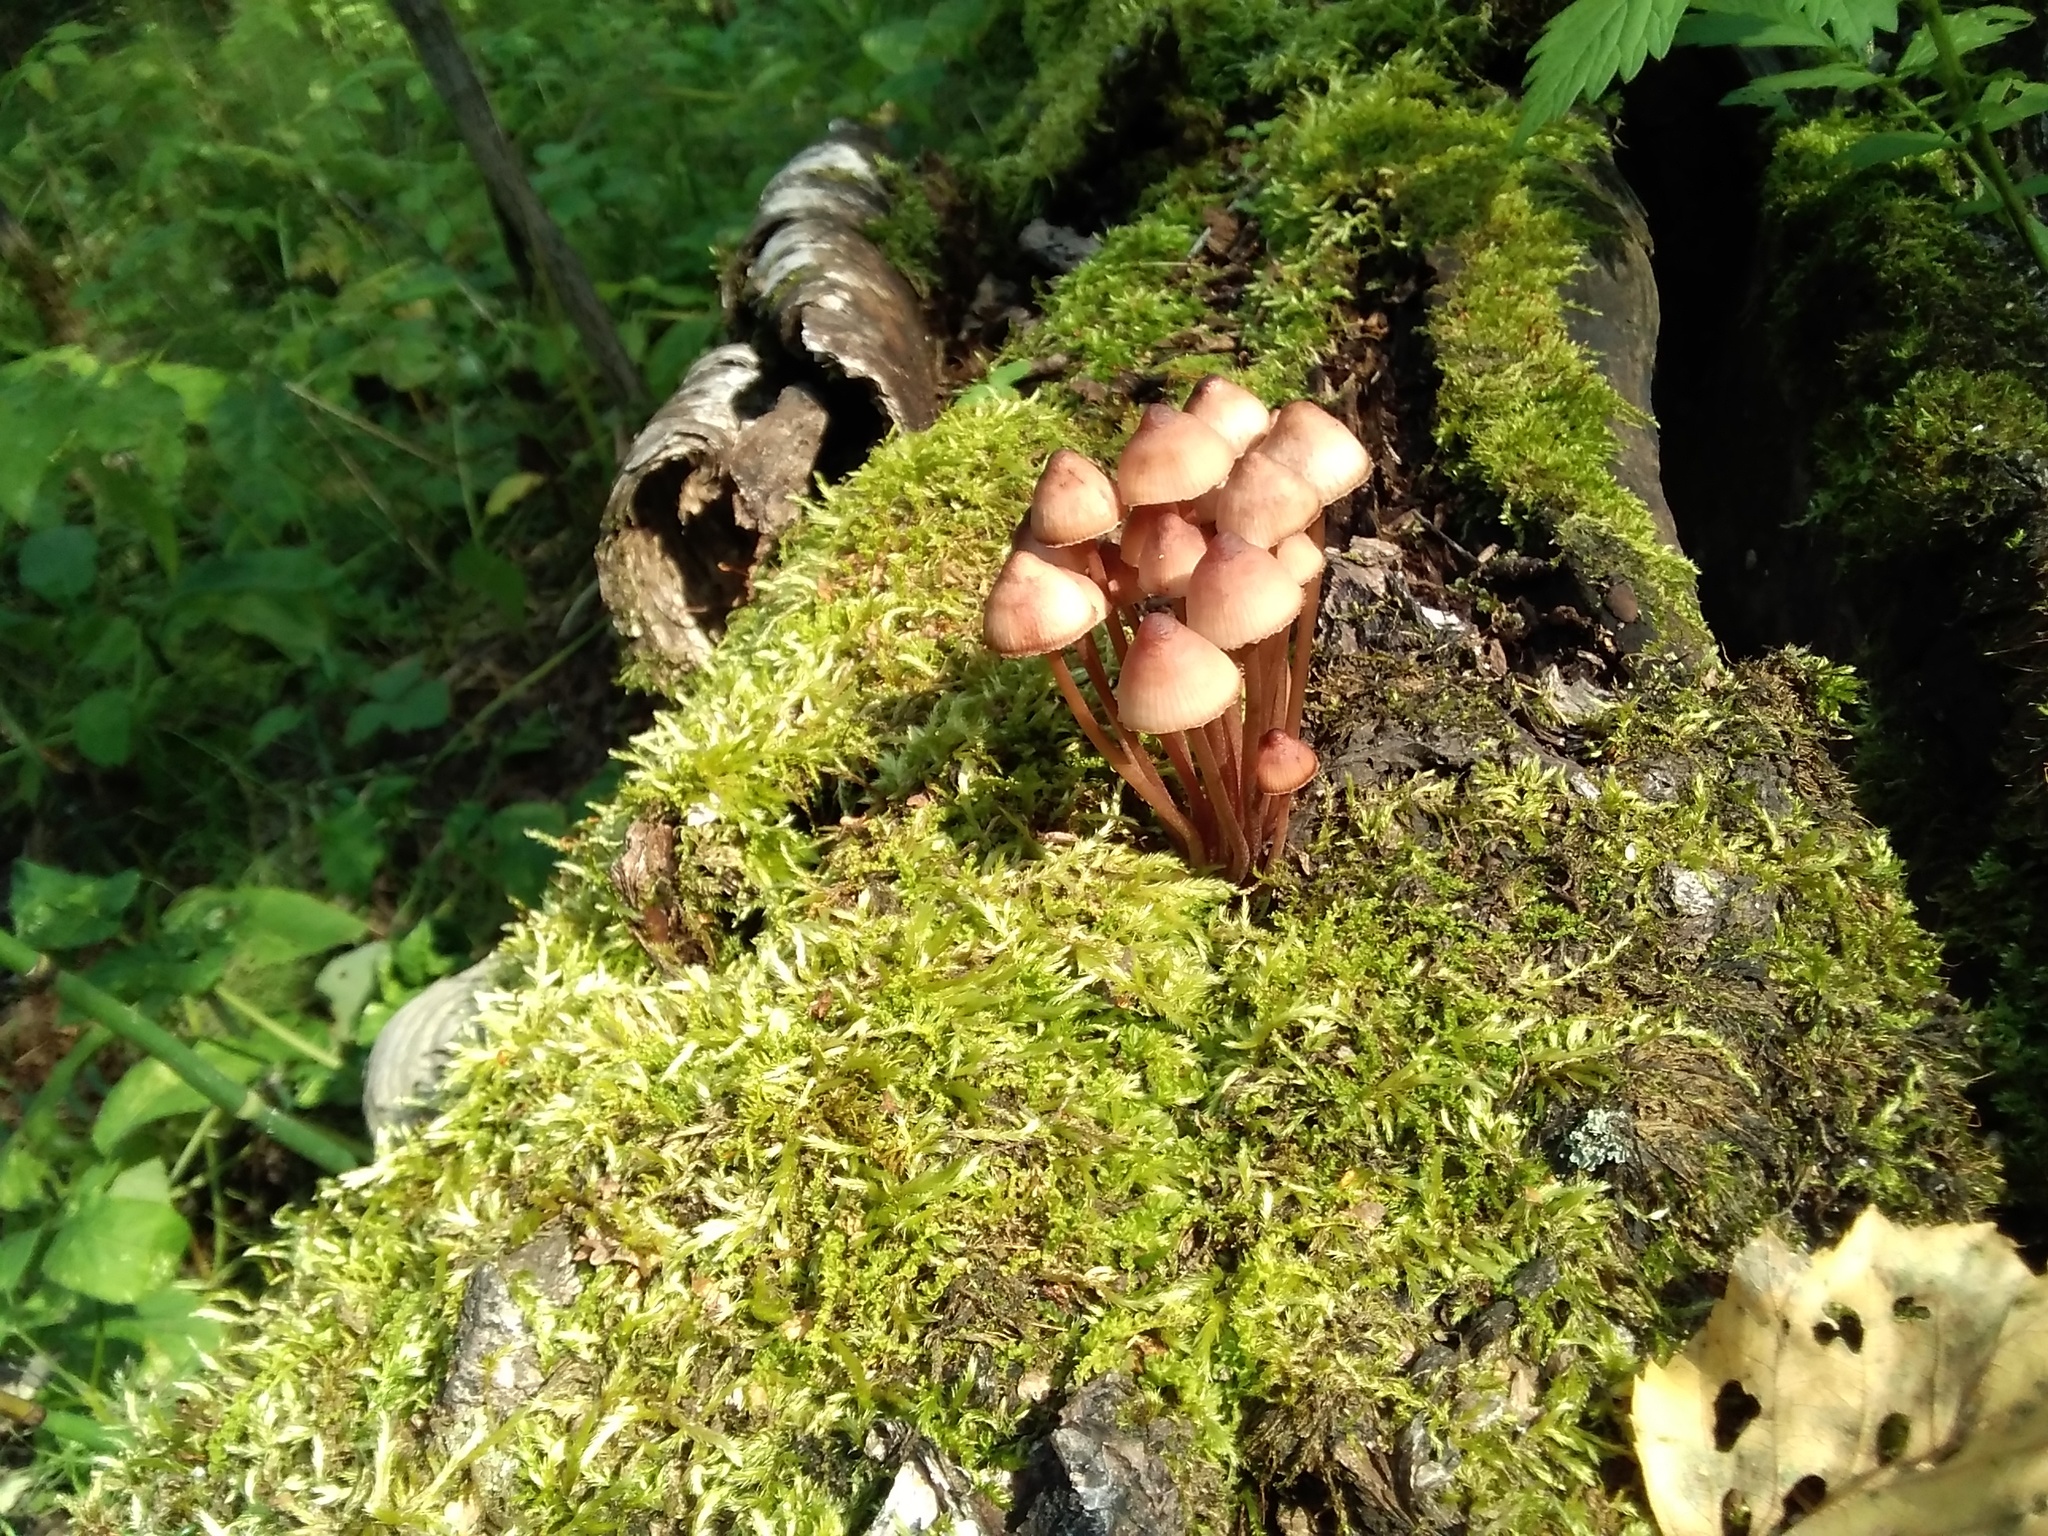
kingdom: Fungi
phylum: Basidiomycota
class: Agaricomycetes
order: Agaricales
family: Mycenaceae
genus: Mycena
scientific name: Mycena haematopus
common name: Burgundydrop bonnet
